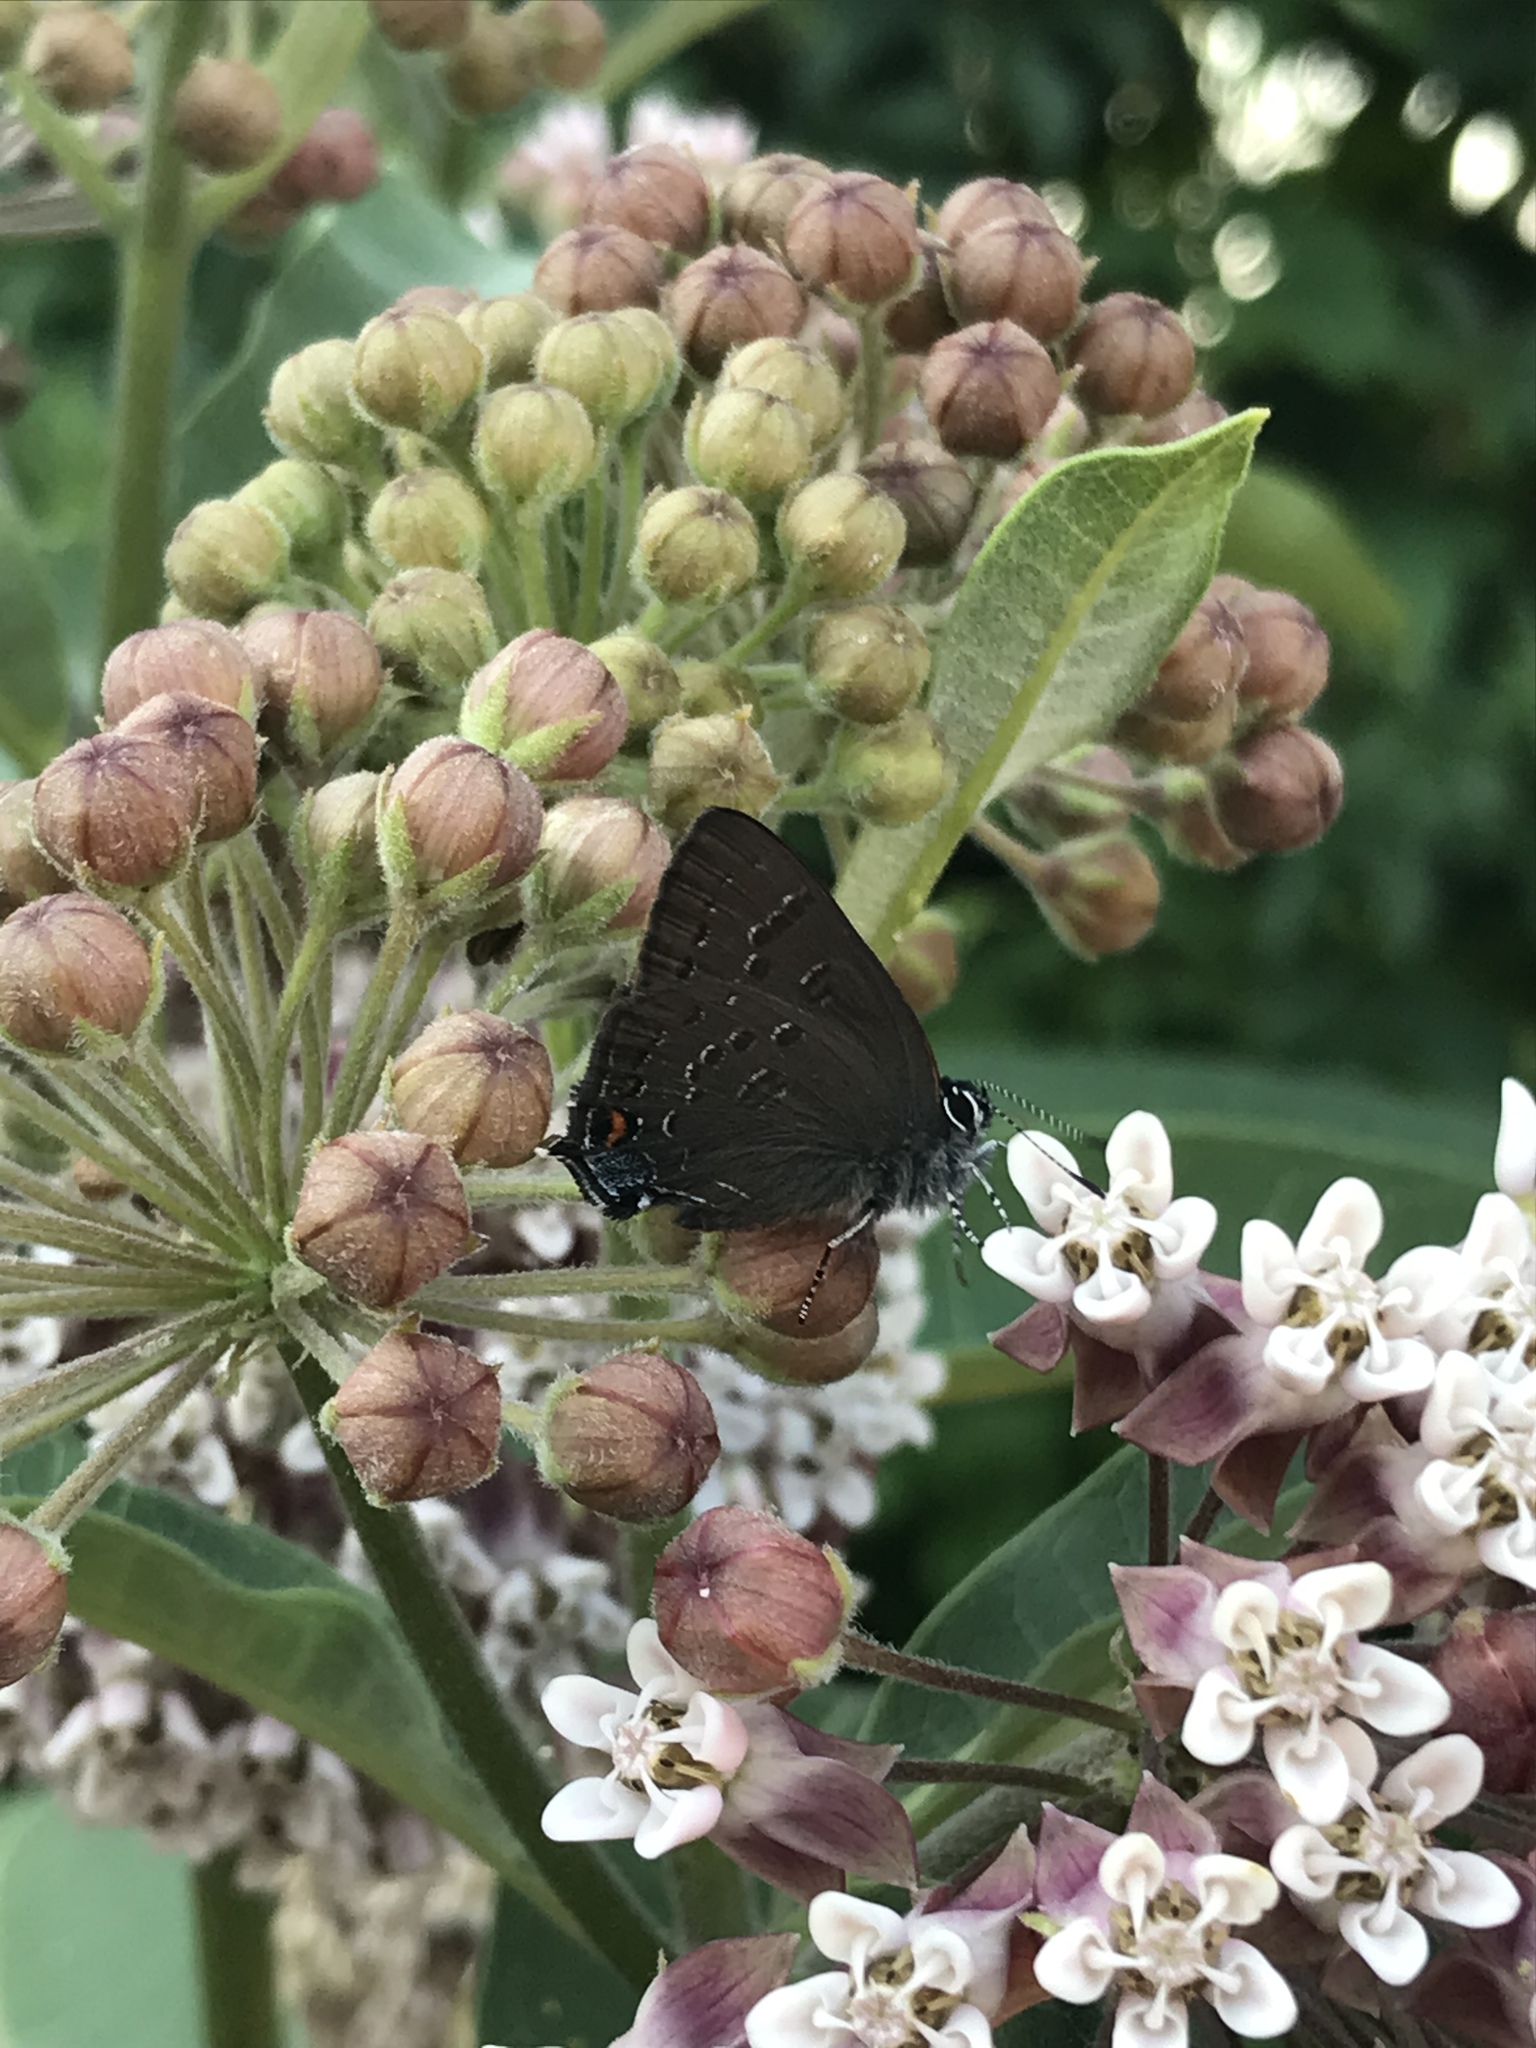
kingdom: Animalia
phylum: Arthropoda
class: Insecta
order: Lepidoptera
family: Lycaenidae
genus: Satyrium
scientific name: Satyrium calanus
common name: Banded hairstreak
